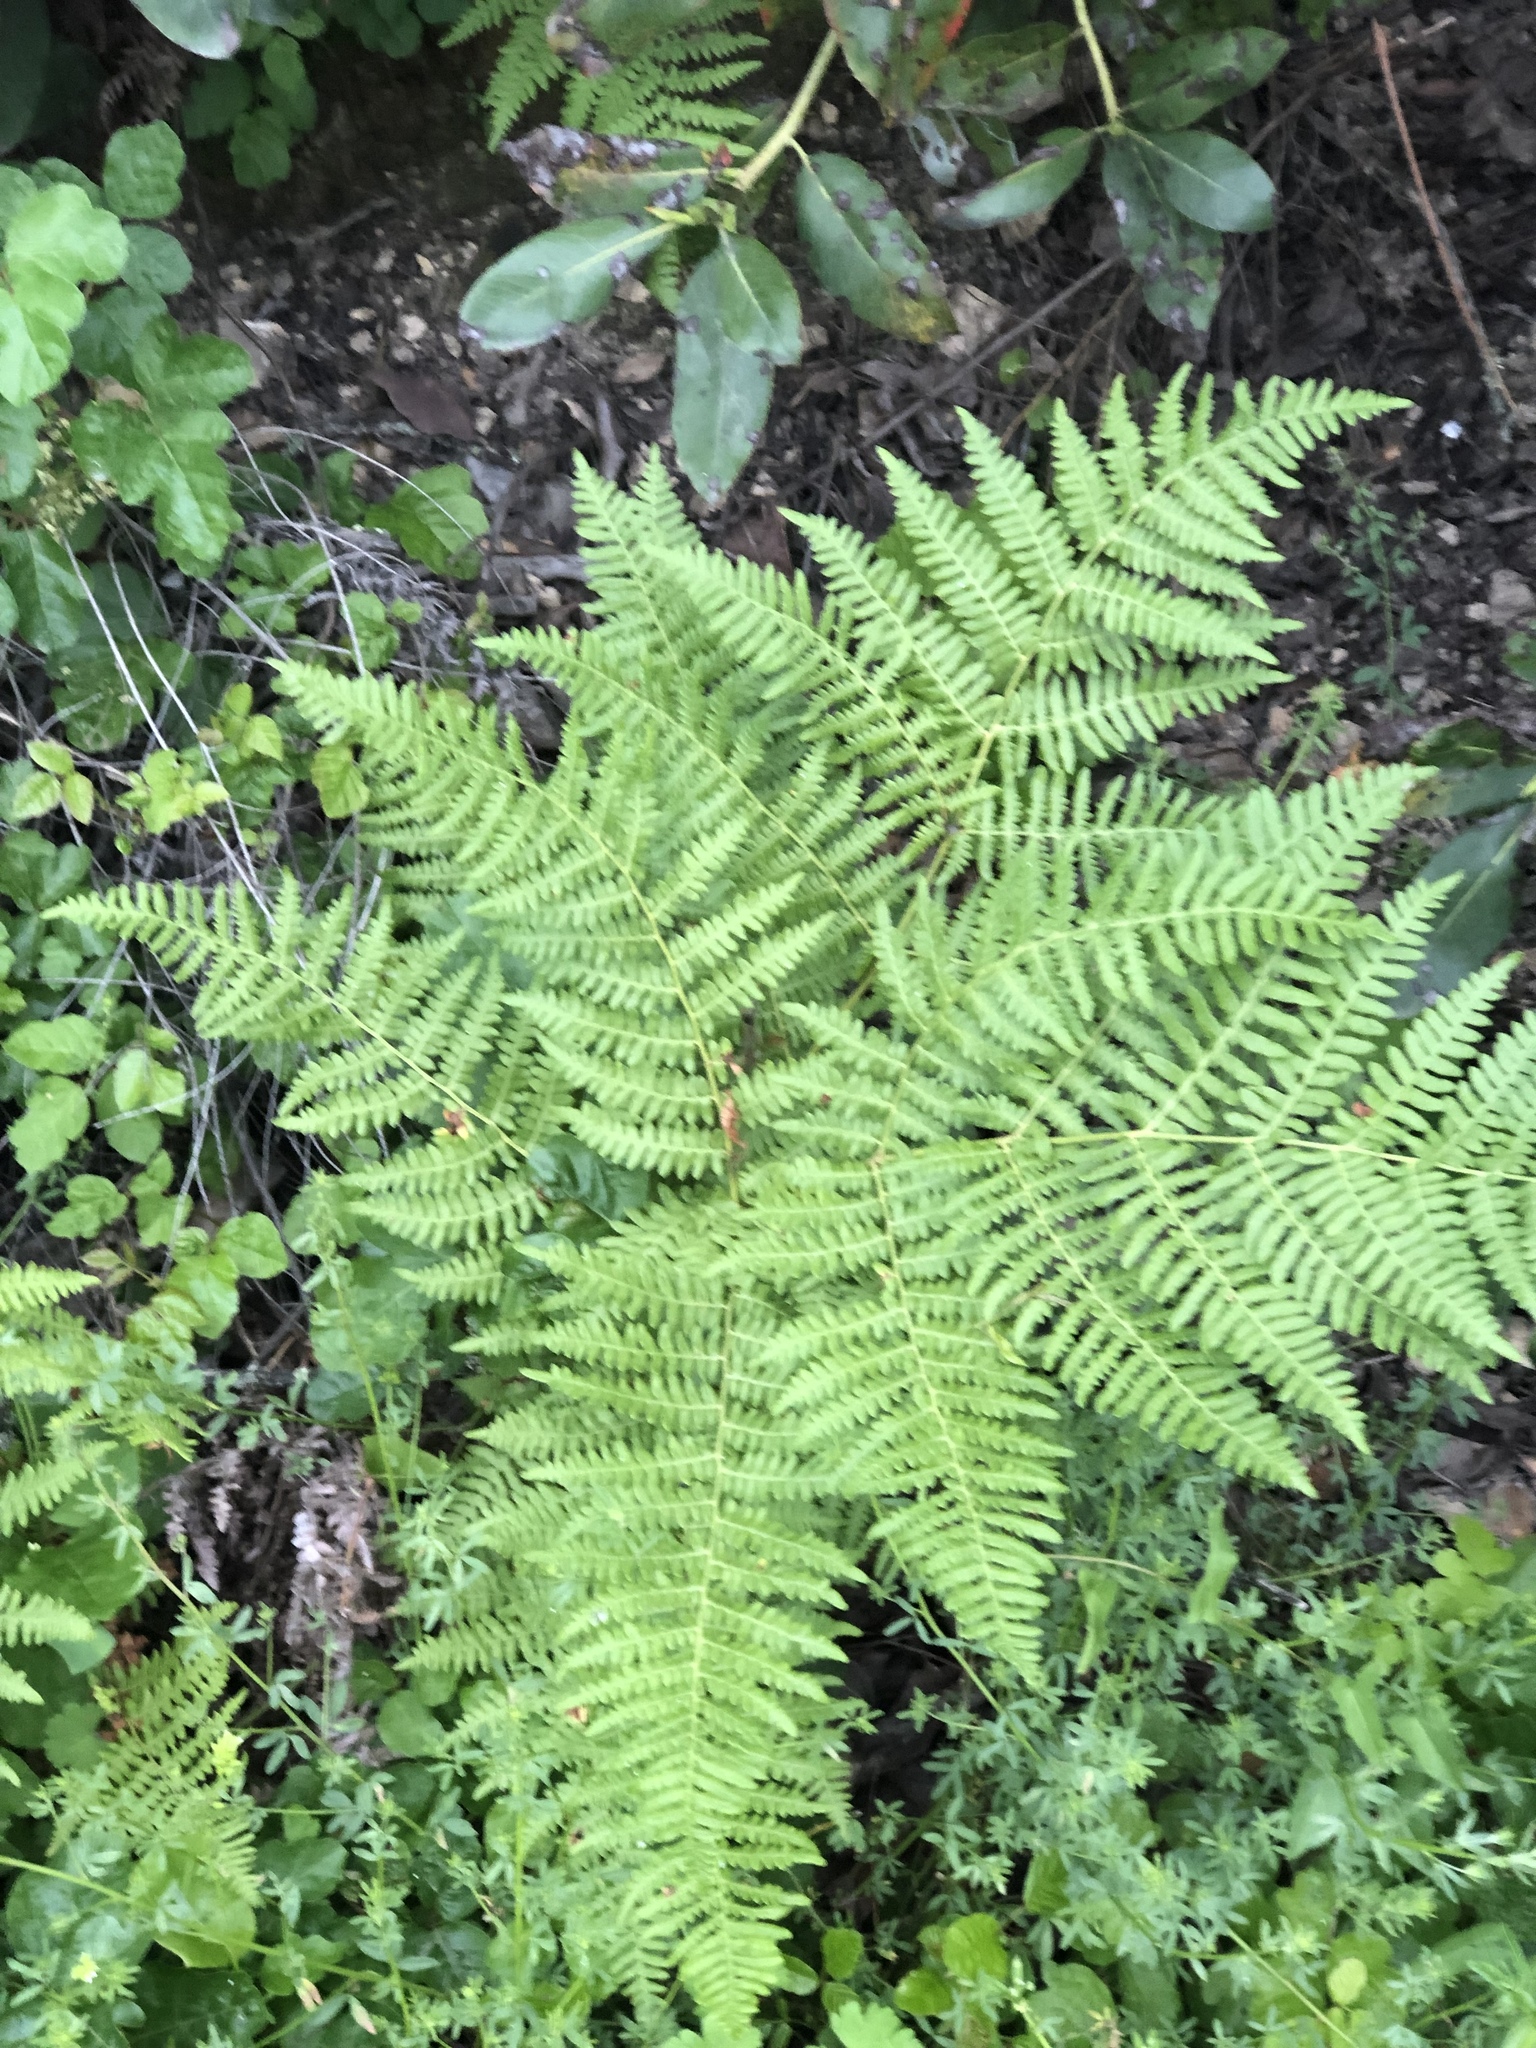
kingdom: Plantae
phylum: Tracheophyta
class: Polypodiopsida
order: Polypodiales
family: Dennstaedtiaceae
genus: Pteridium
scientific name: Pteridium aquilinum
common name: Bracken
